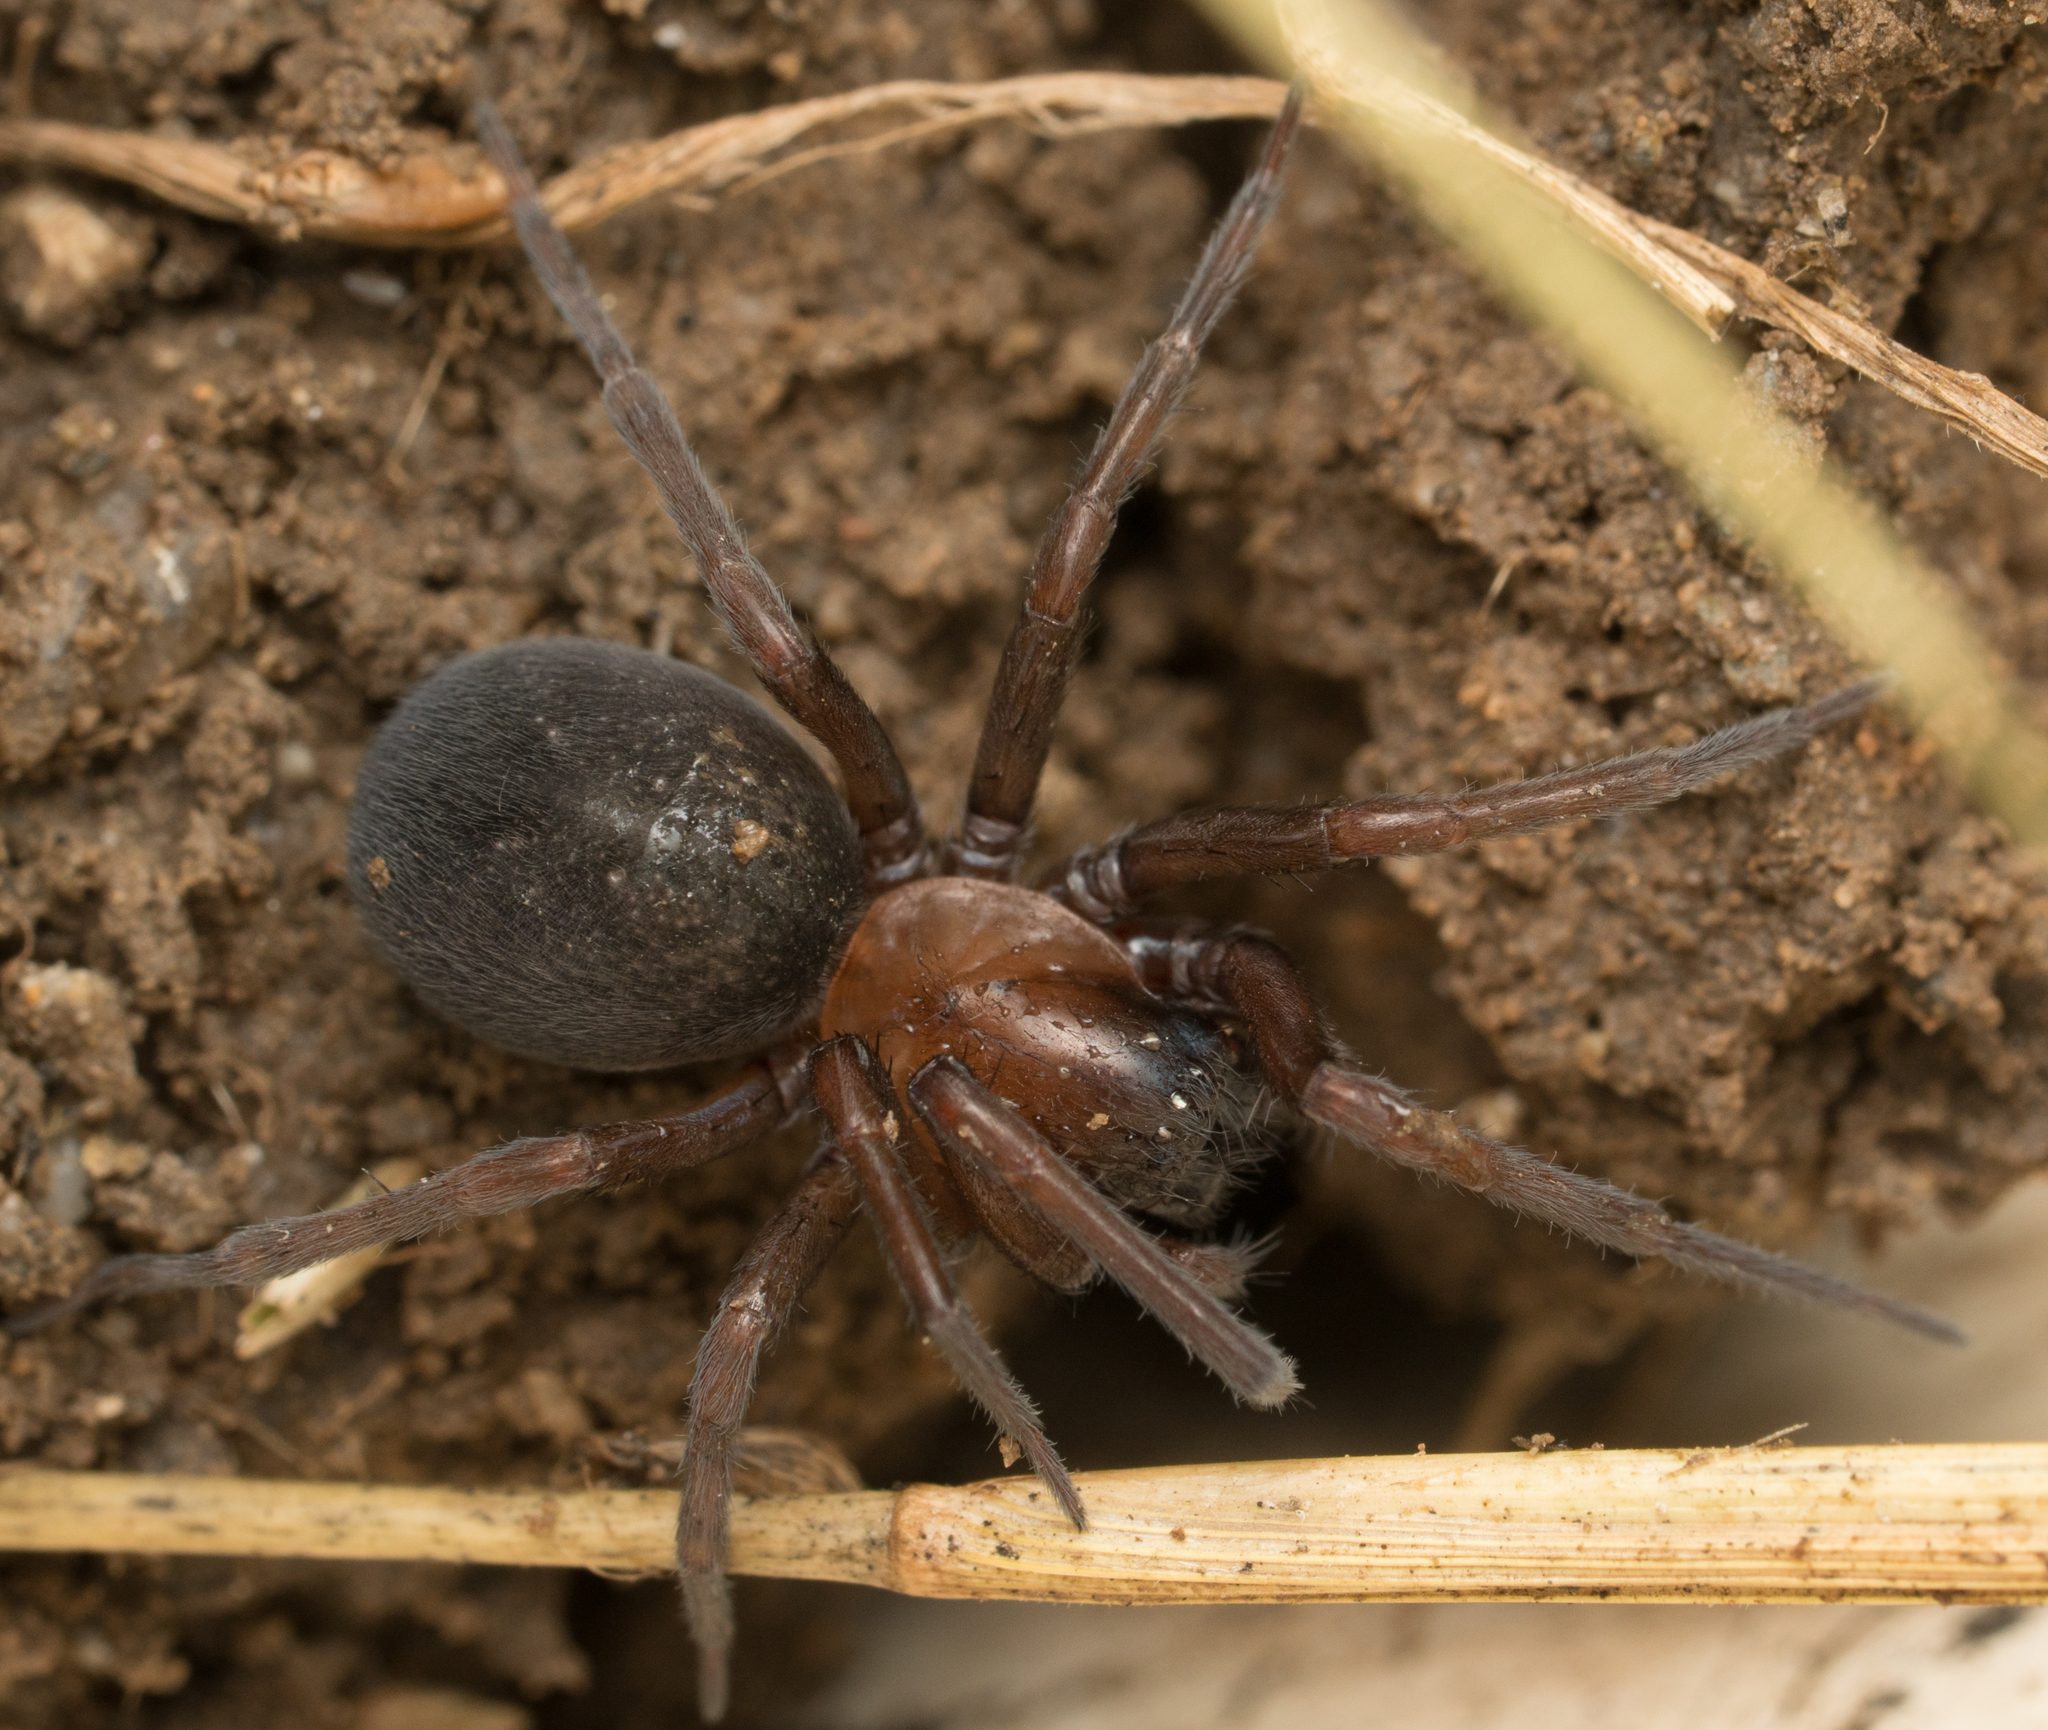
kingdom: Animalia
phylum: Arthropoda
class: Arachnida
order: Araneae
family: Desidae
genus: Metaltella
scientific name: Metaltella simoni
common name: Cribellate spider
